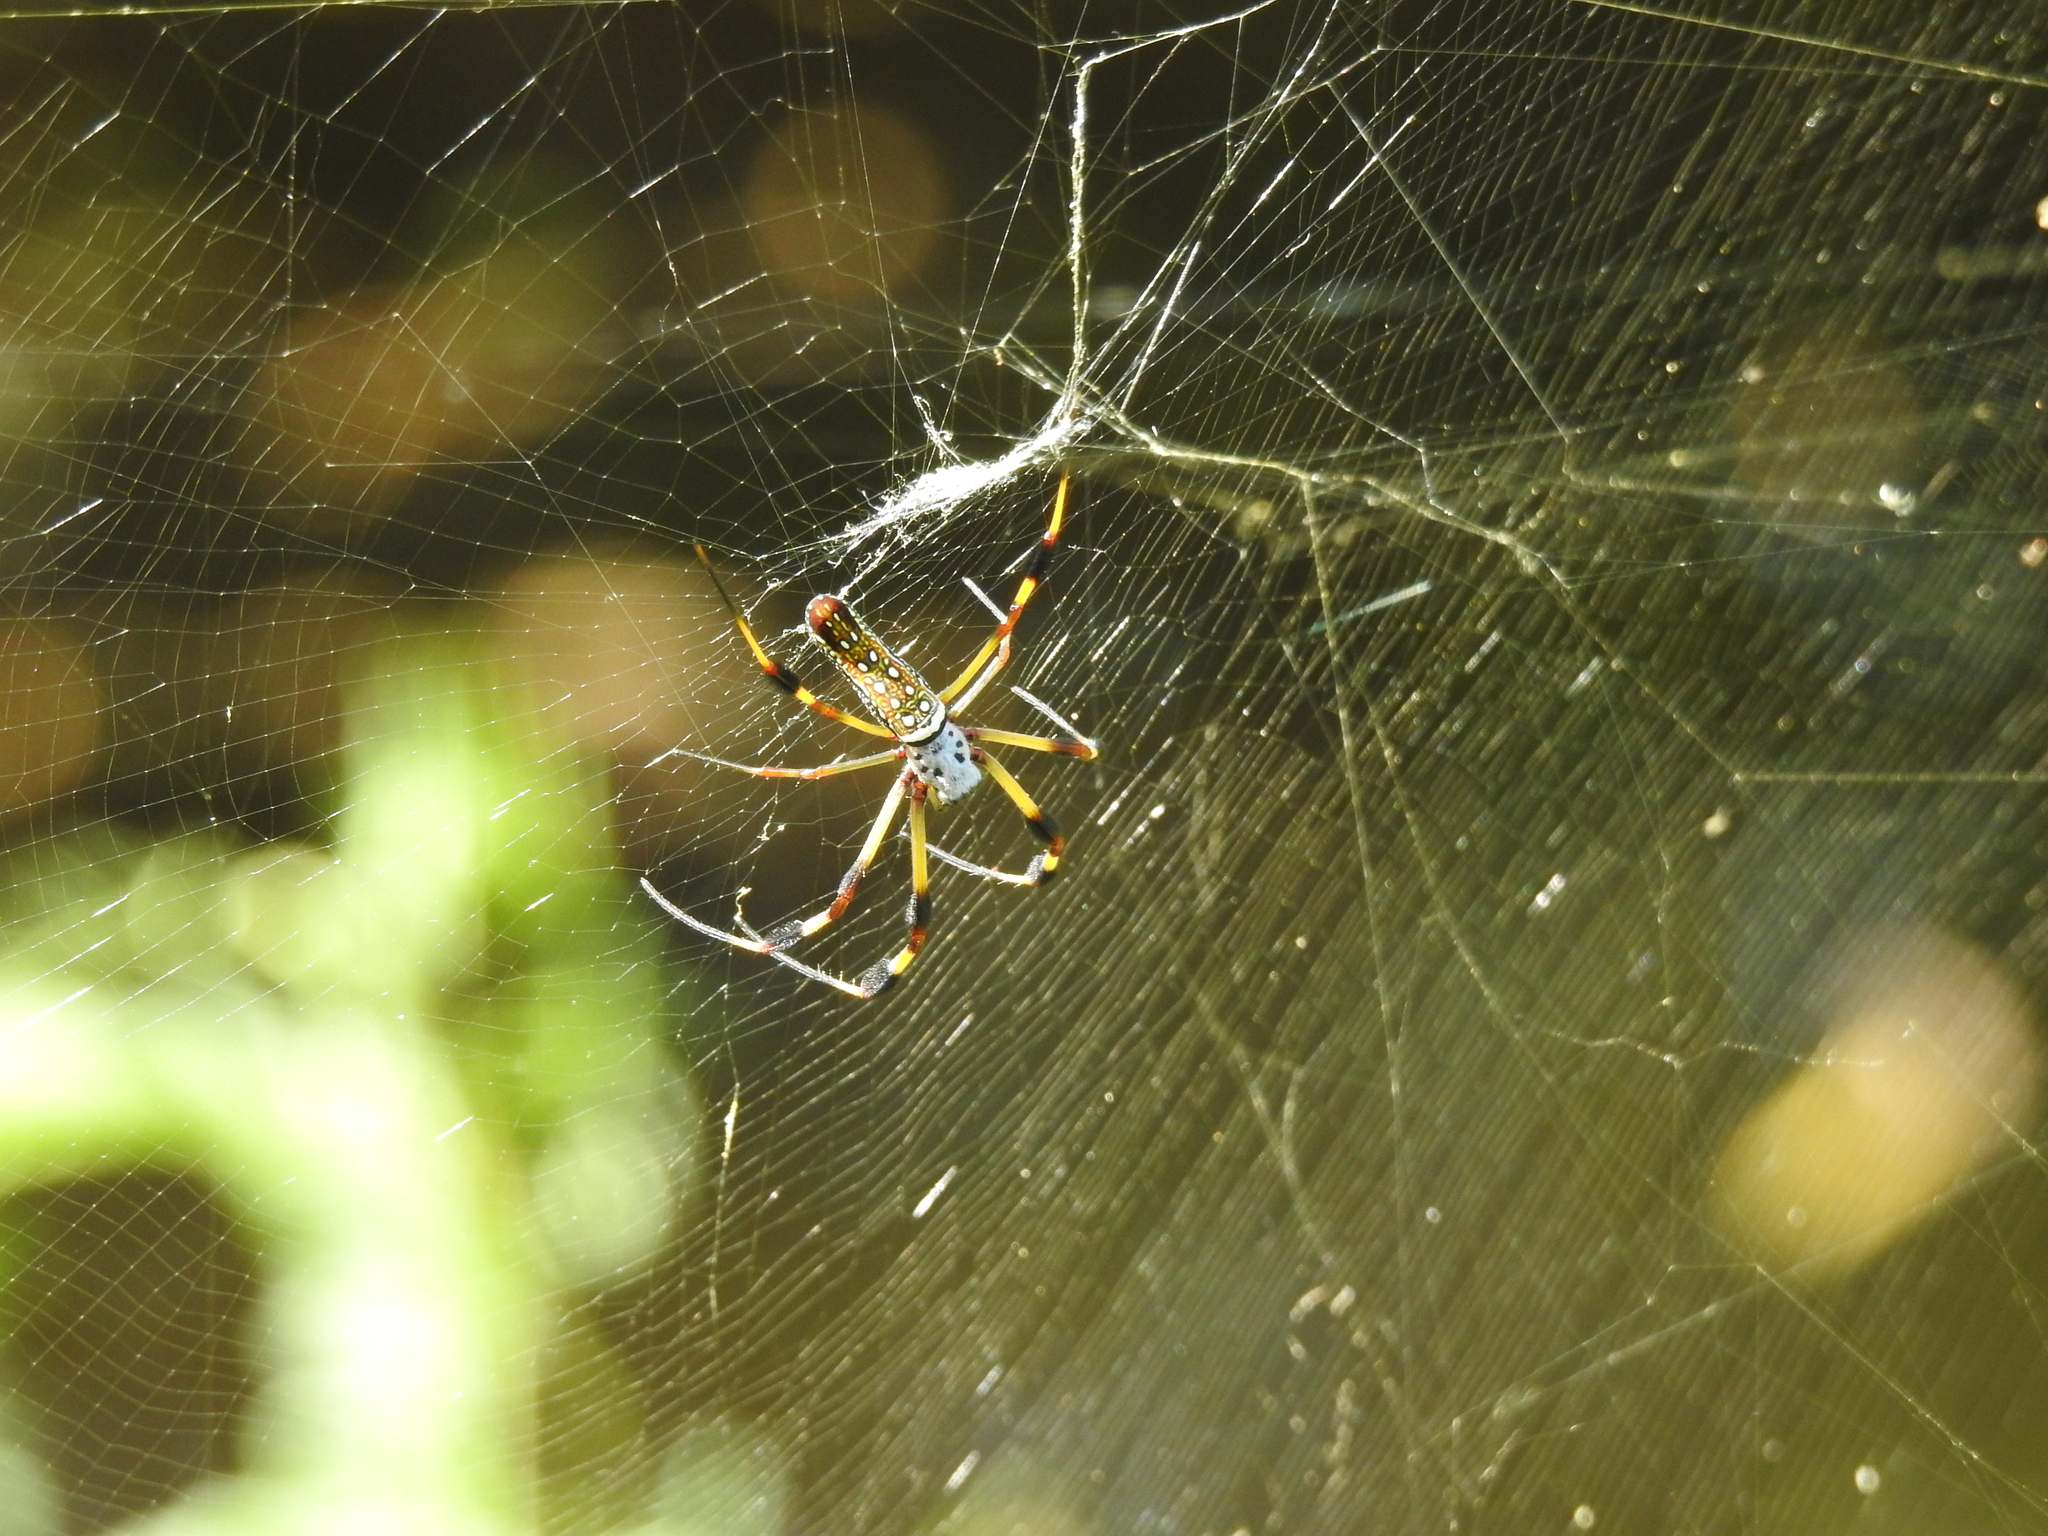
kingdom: Animalia
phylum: Arthropoda
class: Arachnida
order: Araneae
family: Araneidae
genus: Trichonephila
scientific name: Trichonephila clavipes
